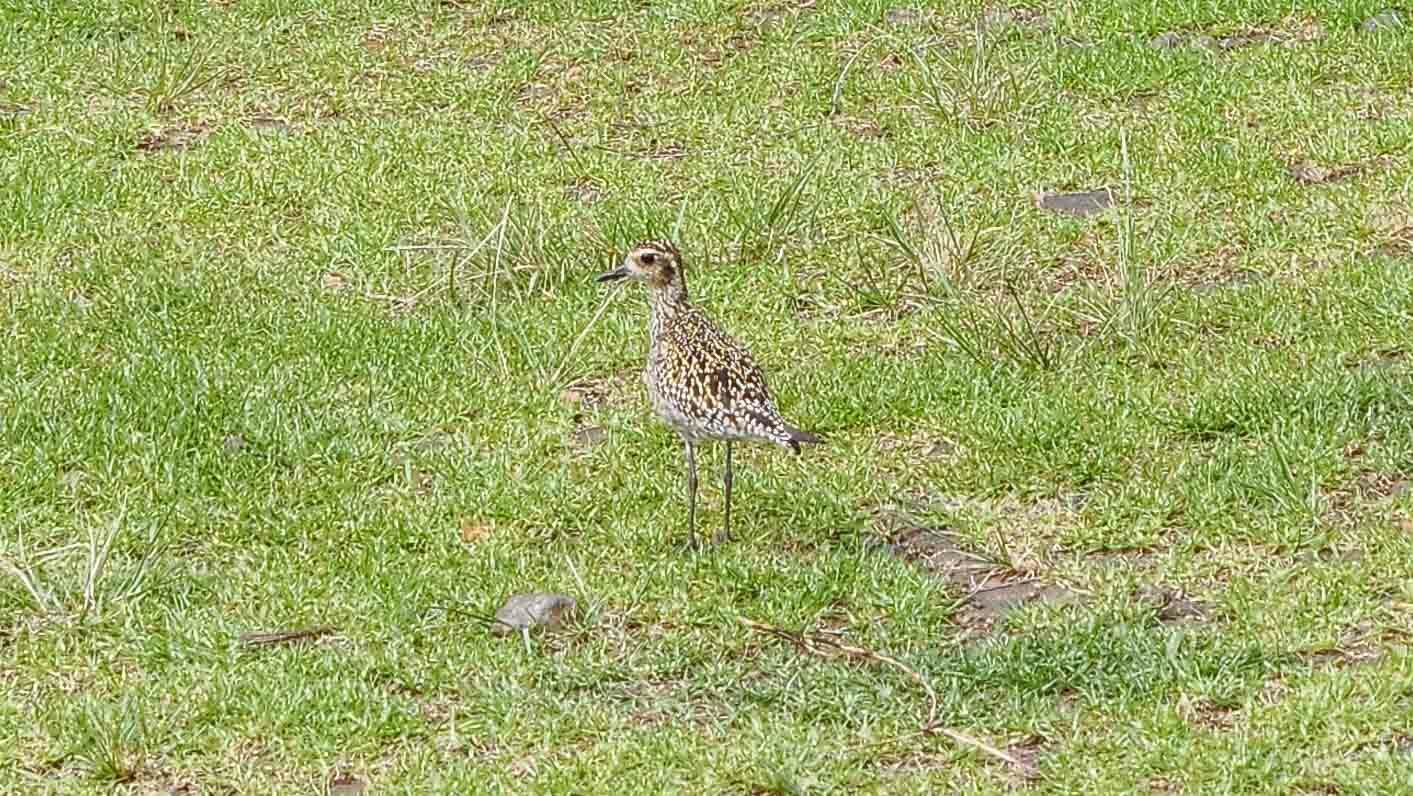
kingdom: Animalia
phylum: Chordata
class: Aves
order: Charadriiformes
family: Charadriidae
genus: Pluvialis
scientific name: Pluvialis fulva
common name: Pacific golden plover
